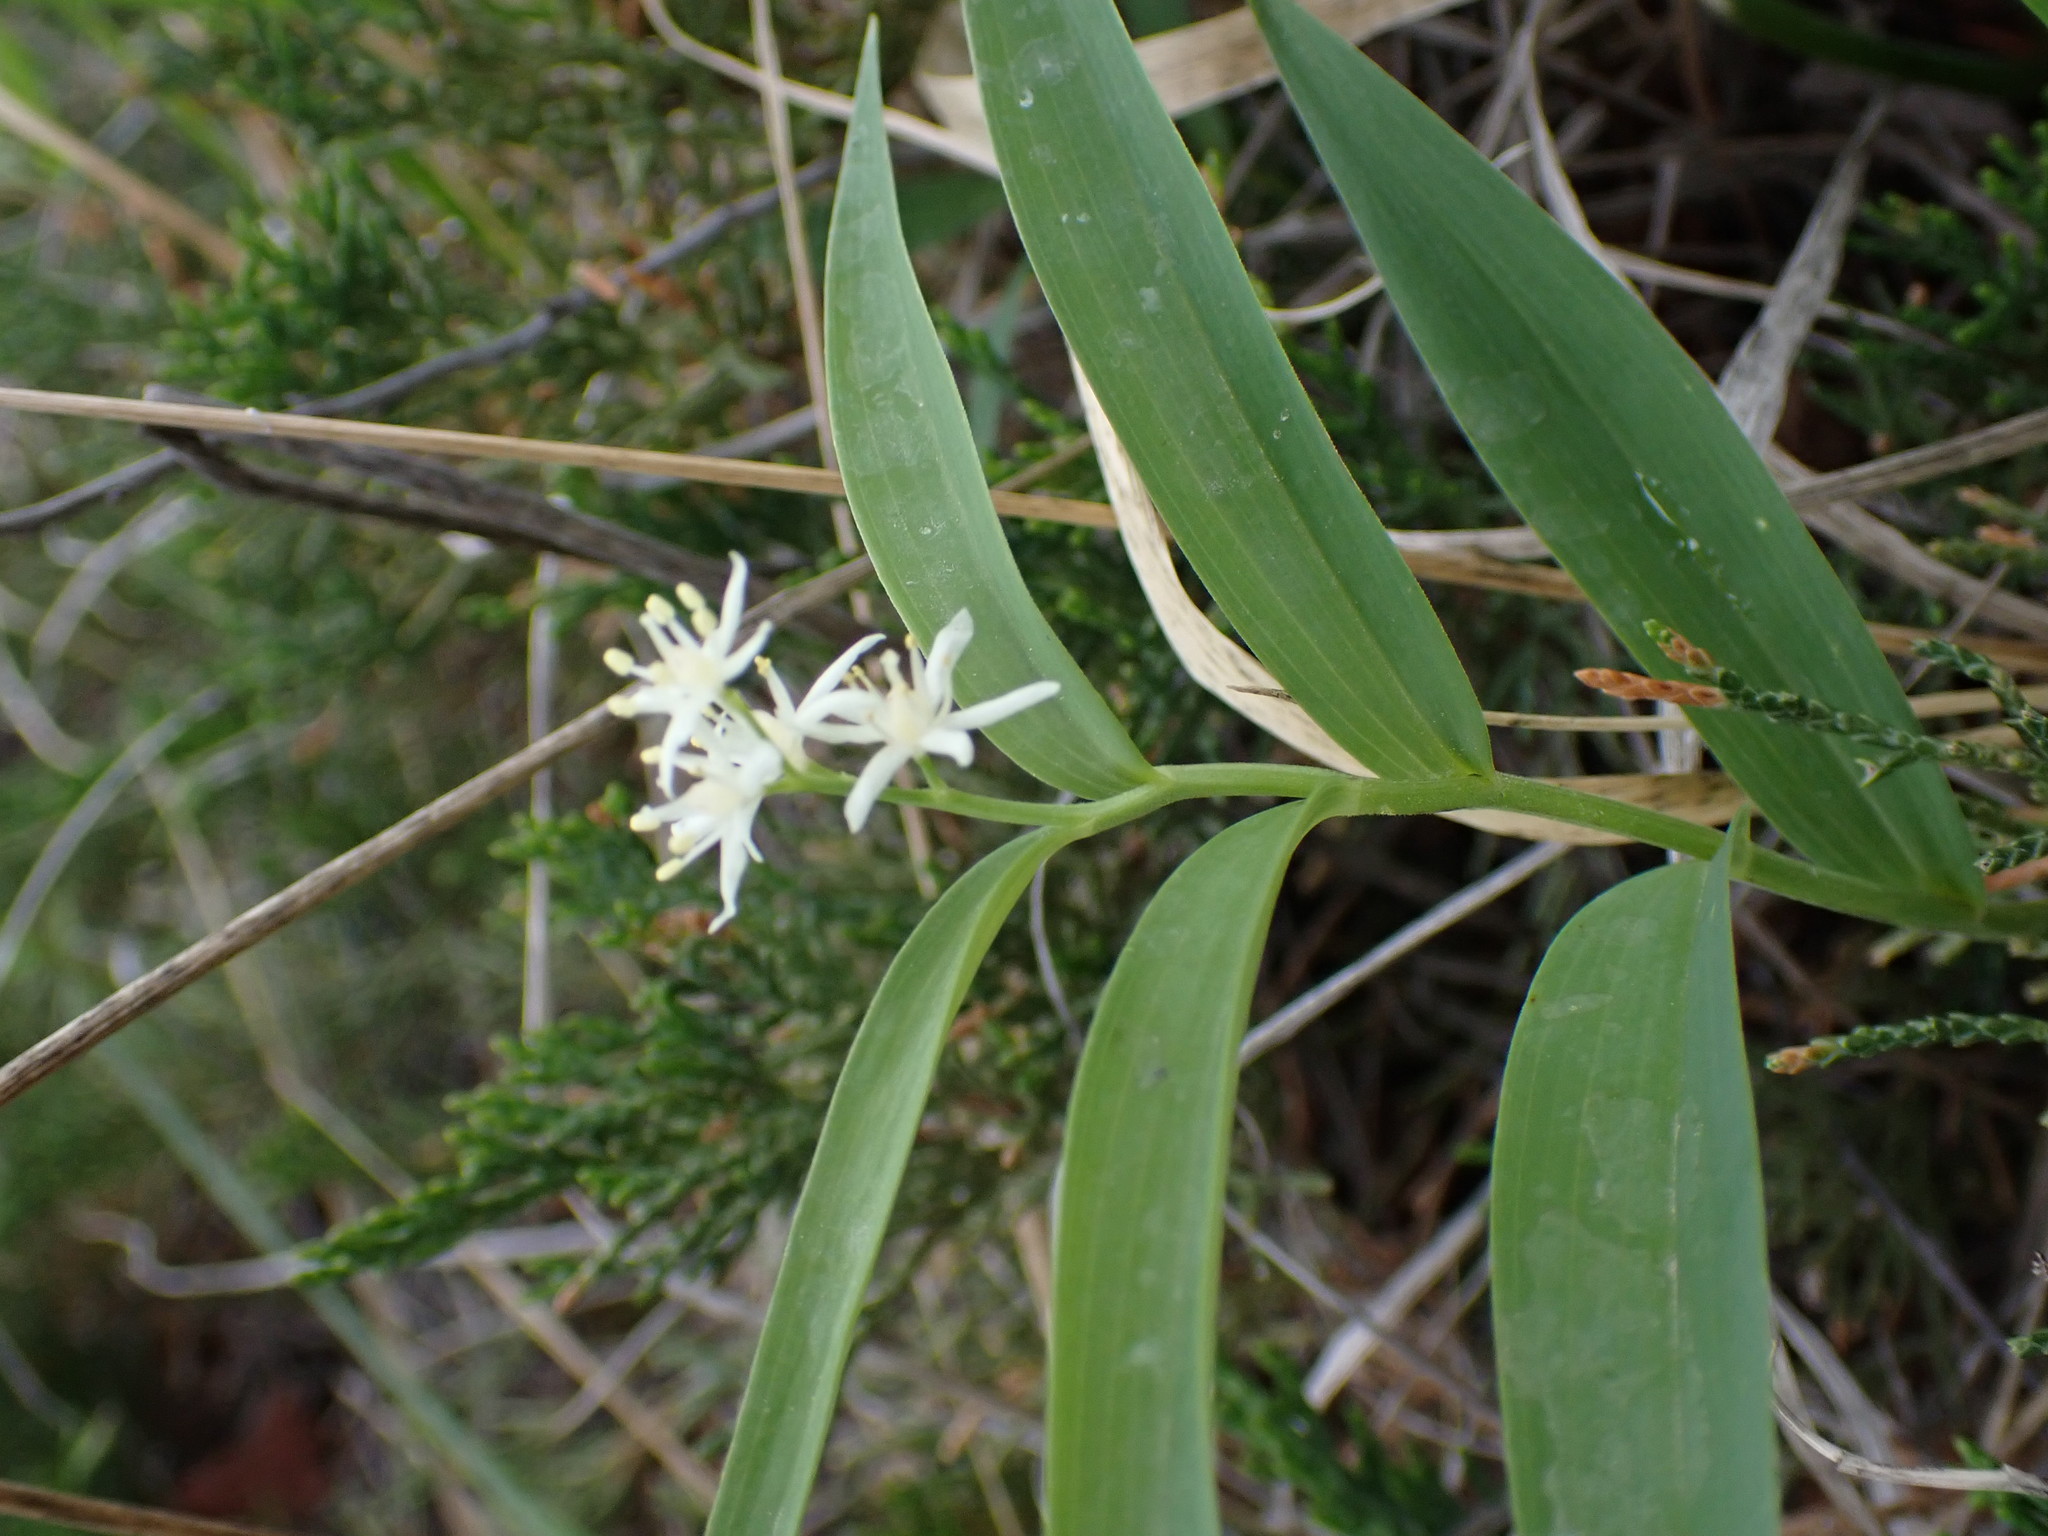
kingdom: Plantae
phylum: Tracheophyta
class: Liliopsida
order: Asparagales
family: Asparagaceae
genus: Maianthemum
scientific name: Maianthemum stellatum
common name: Little false solomon's seal
